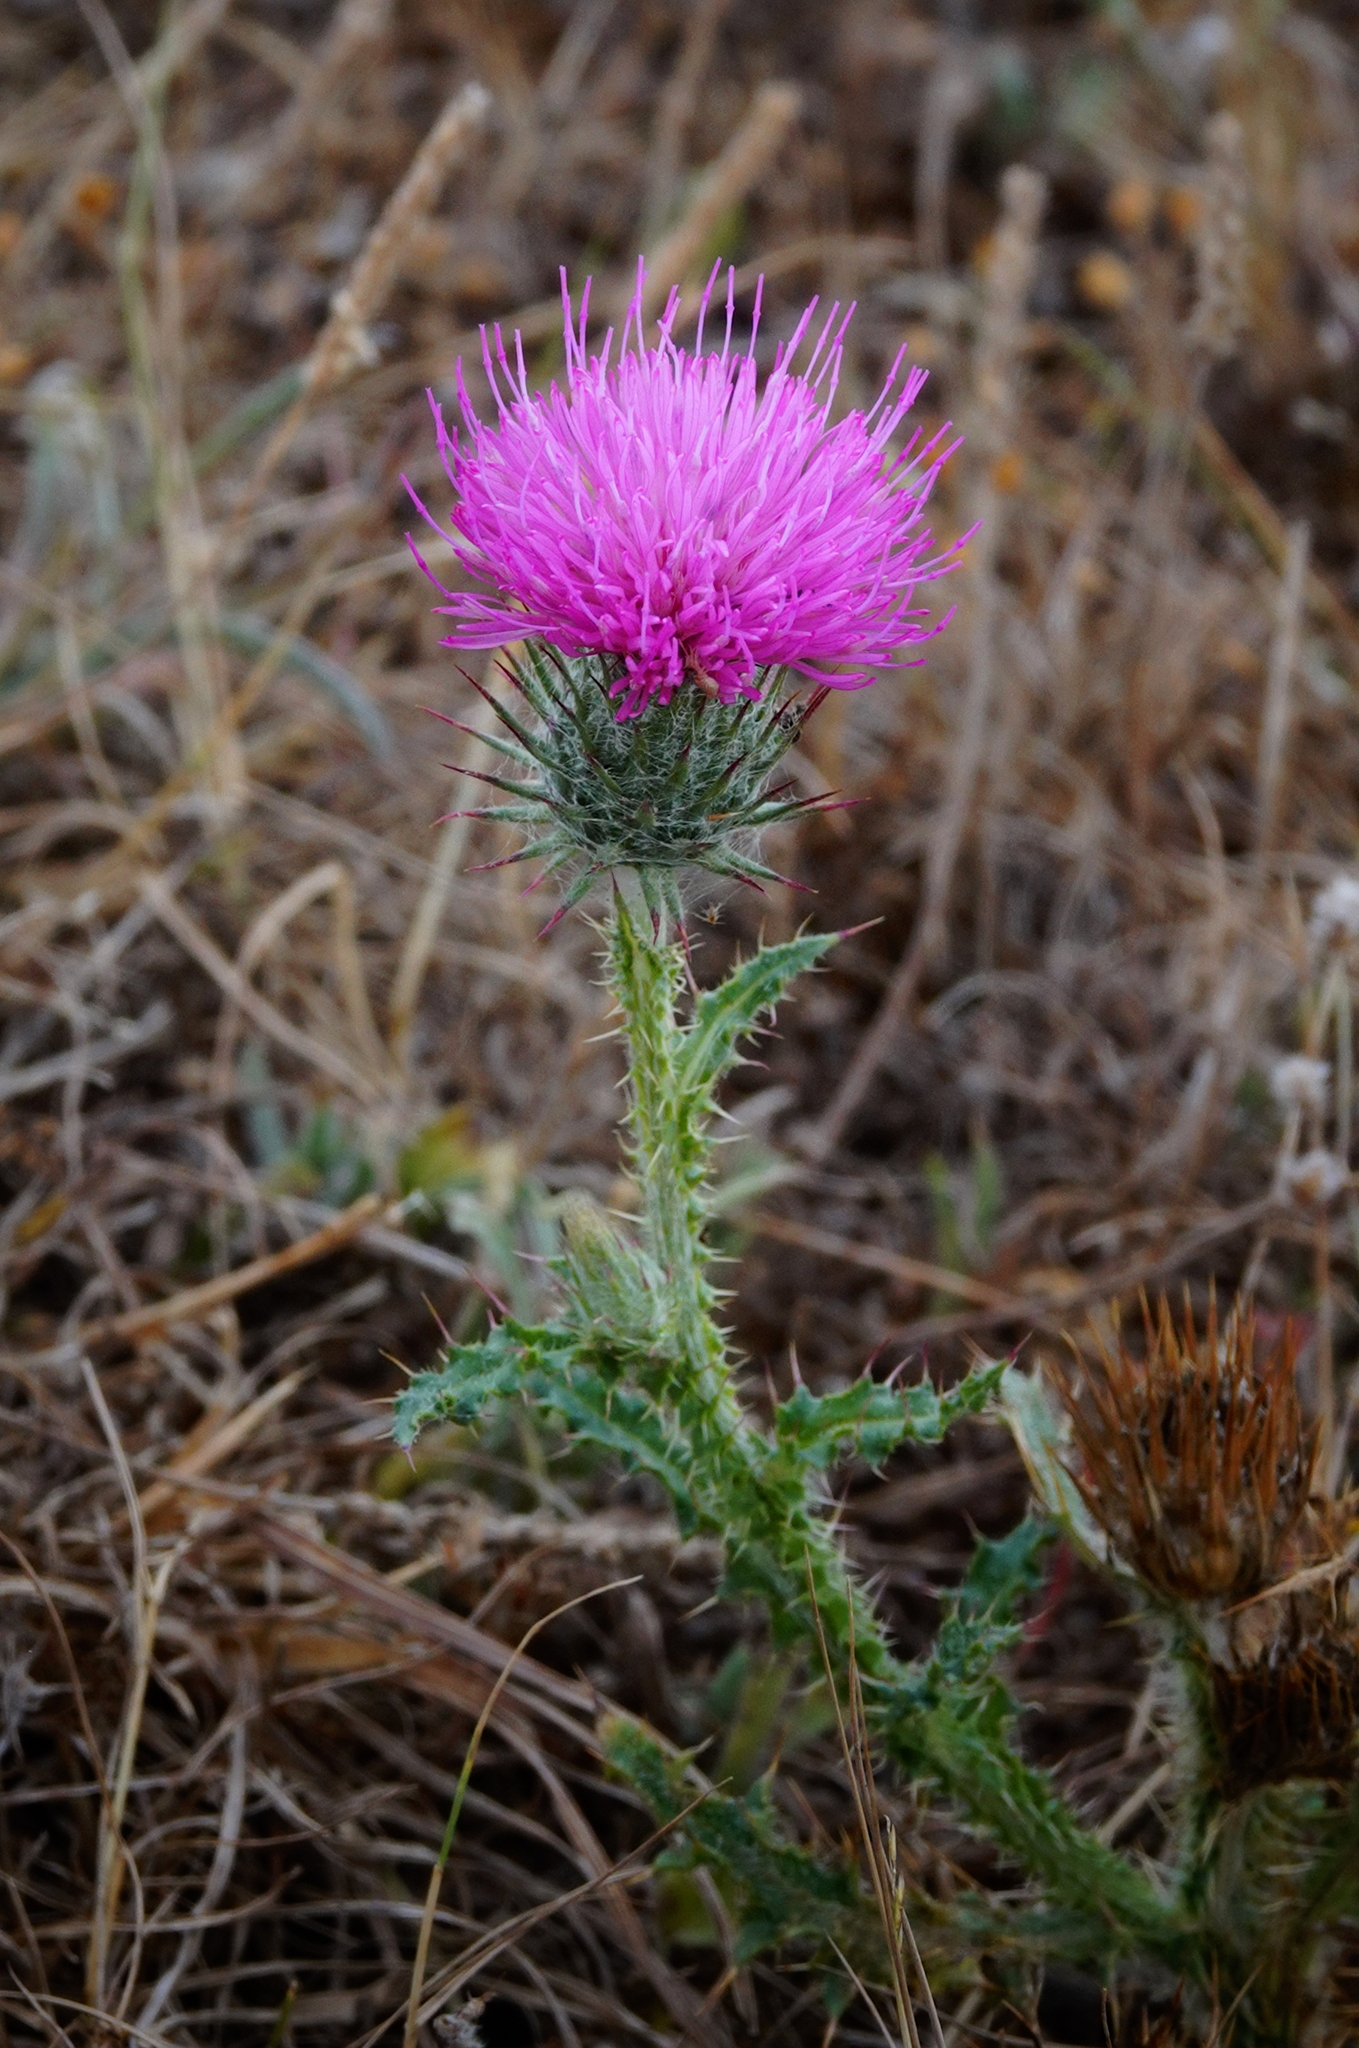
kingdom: Plantae
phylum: Tracheophyta
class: Magnoliopsida
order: Asterales
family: Asteraceae
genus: Carduus
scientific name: Carduus broteroi
